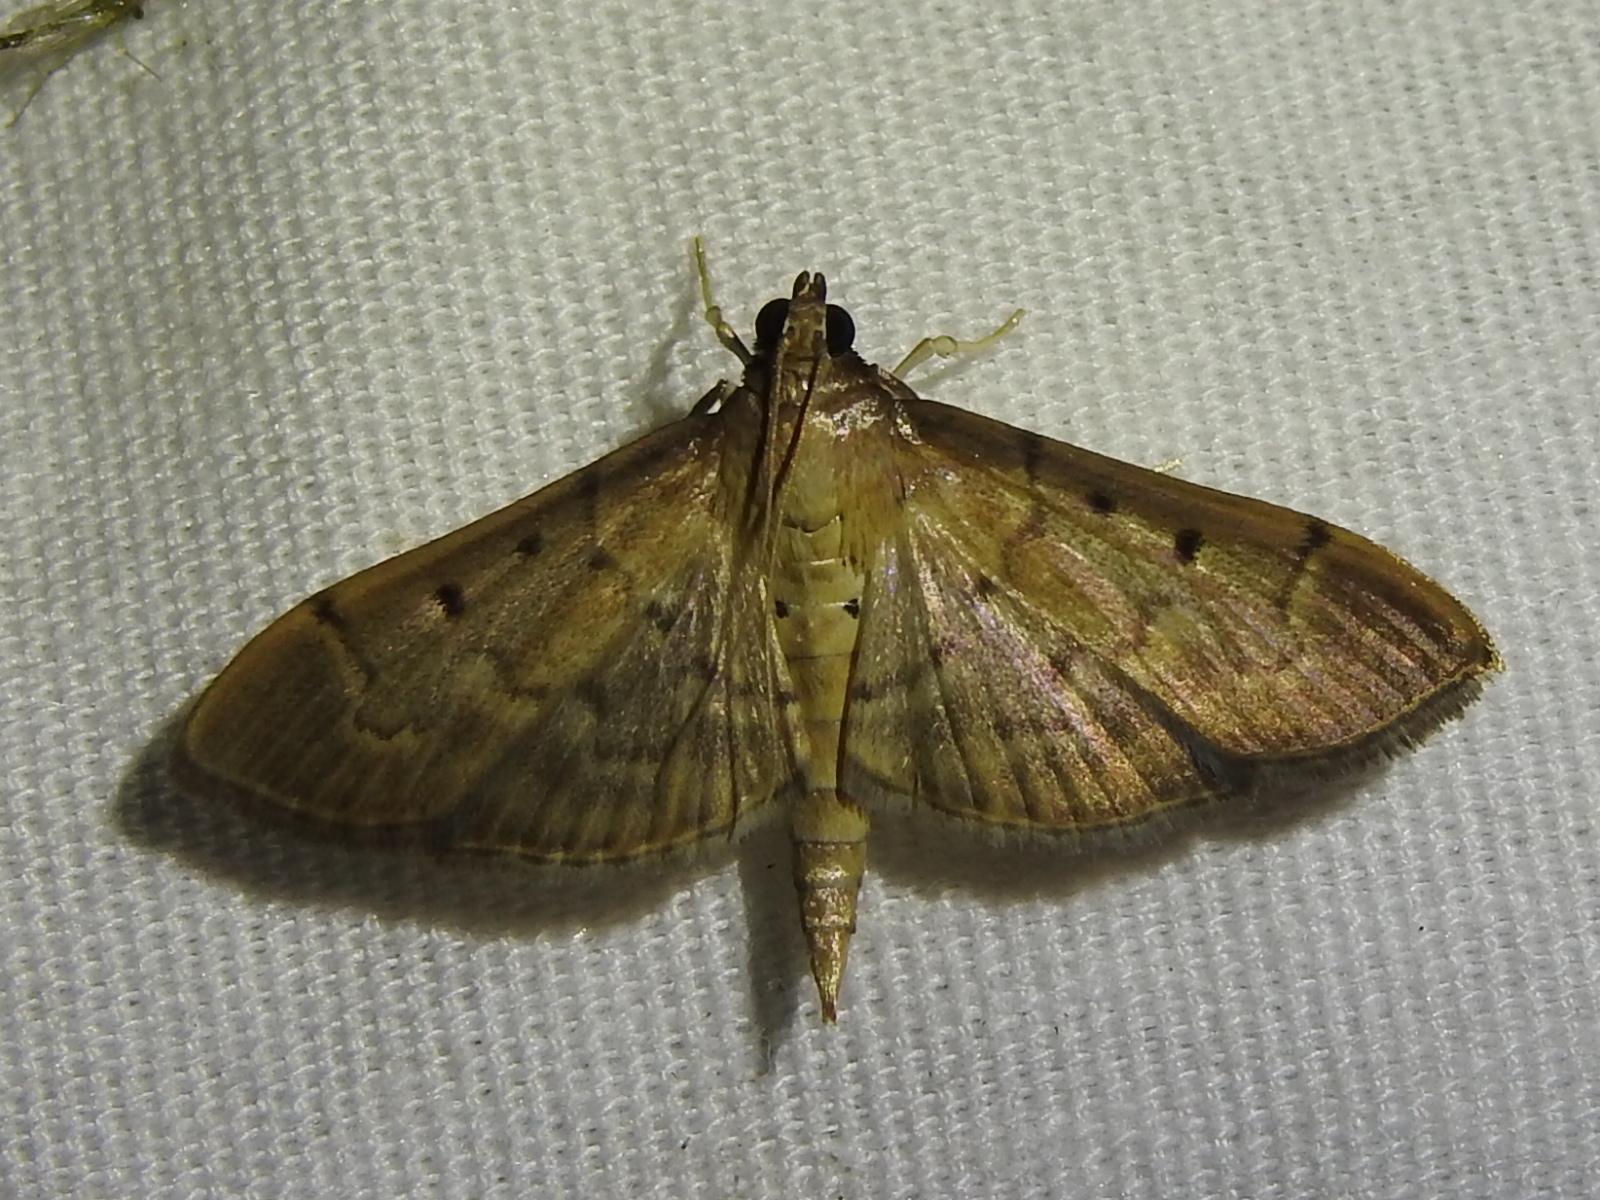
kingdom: Animalia
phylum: Arthropoda
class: Insecta
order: Lepidoptera
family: Crambidae
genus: Herpetogramma
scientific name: Herpetogramma bipunctalis
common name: Southern beet webworm
